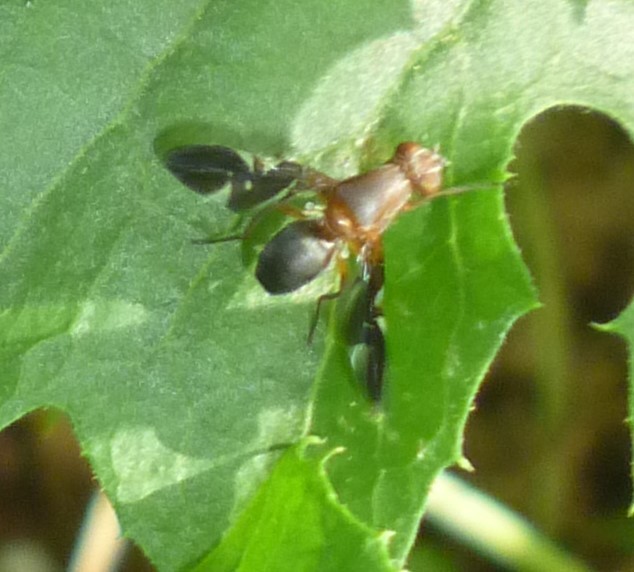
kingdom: Animalia
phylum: Arthropoda
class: Insecta
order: Diptera
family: Ulidiidae
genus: Delphinia
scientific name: Delphinia picta
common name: Common picture-winged fly
